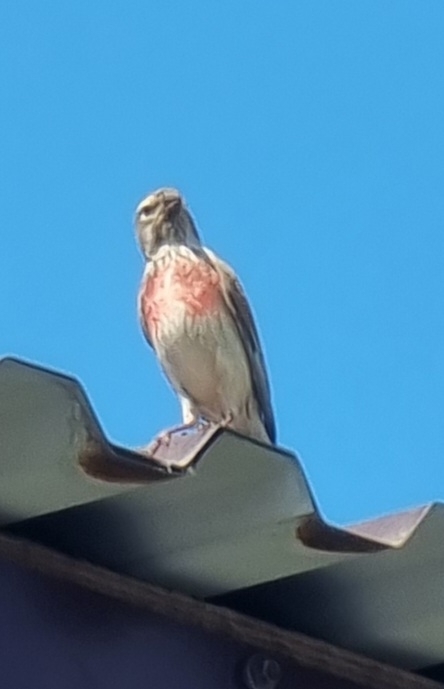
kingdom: Animalia
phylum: Chordata
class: Aves
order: Passeriformes
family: Fringillidae
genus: Linaria
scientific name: Linaria cannabina
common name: Common linnet
